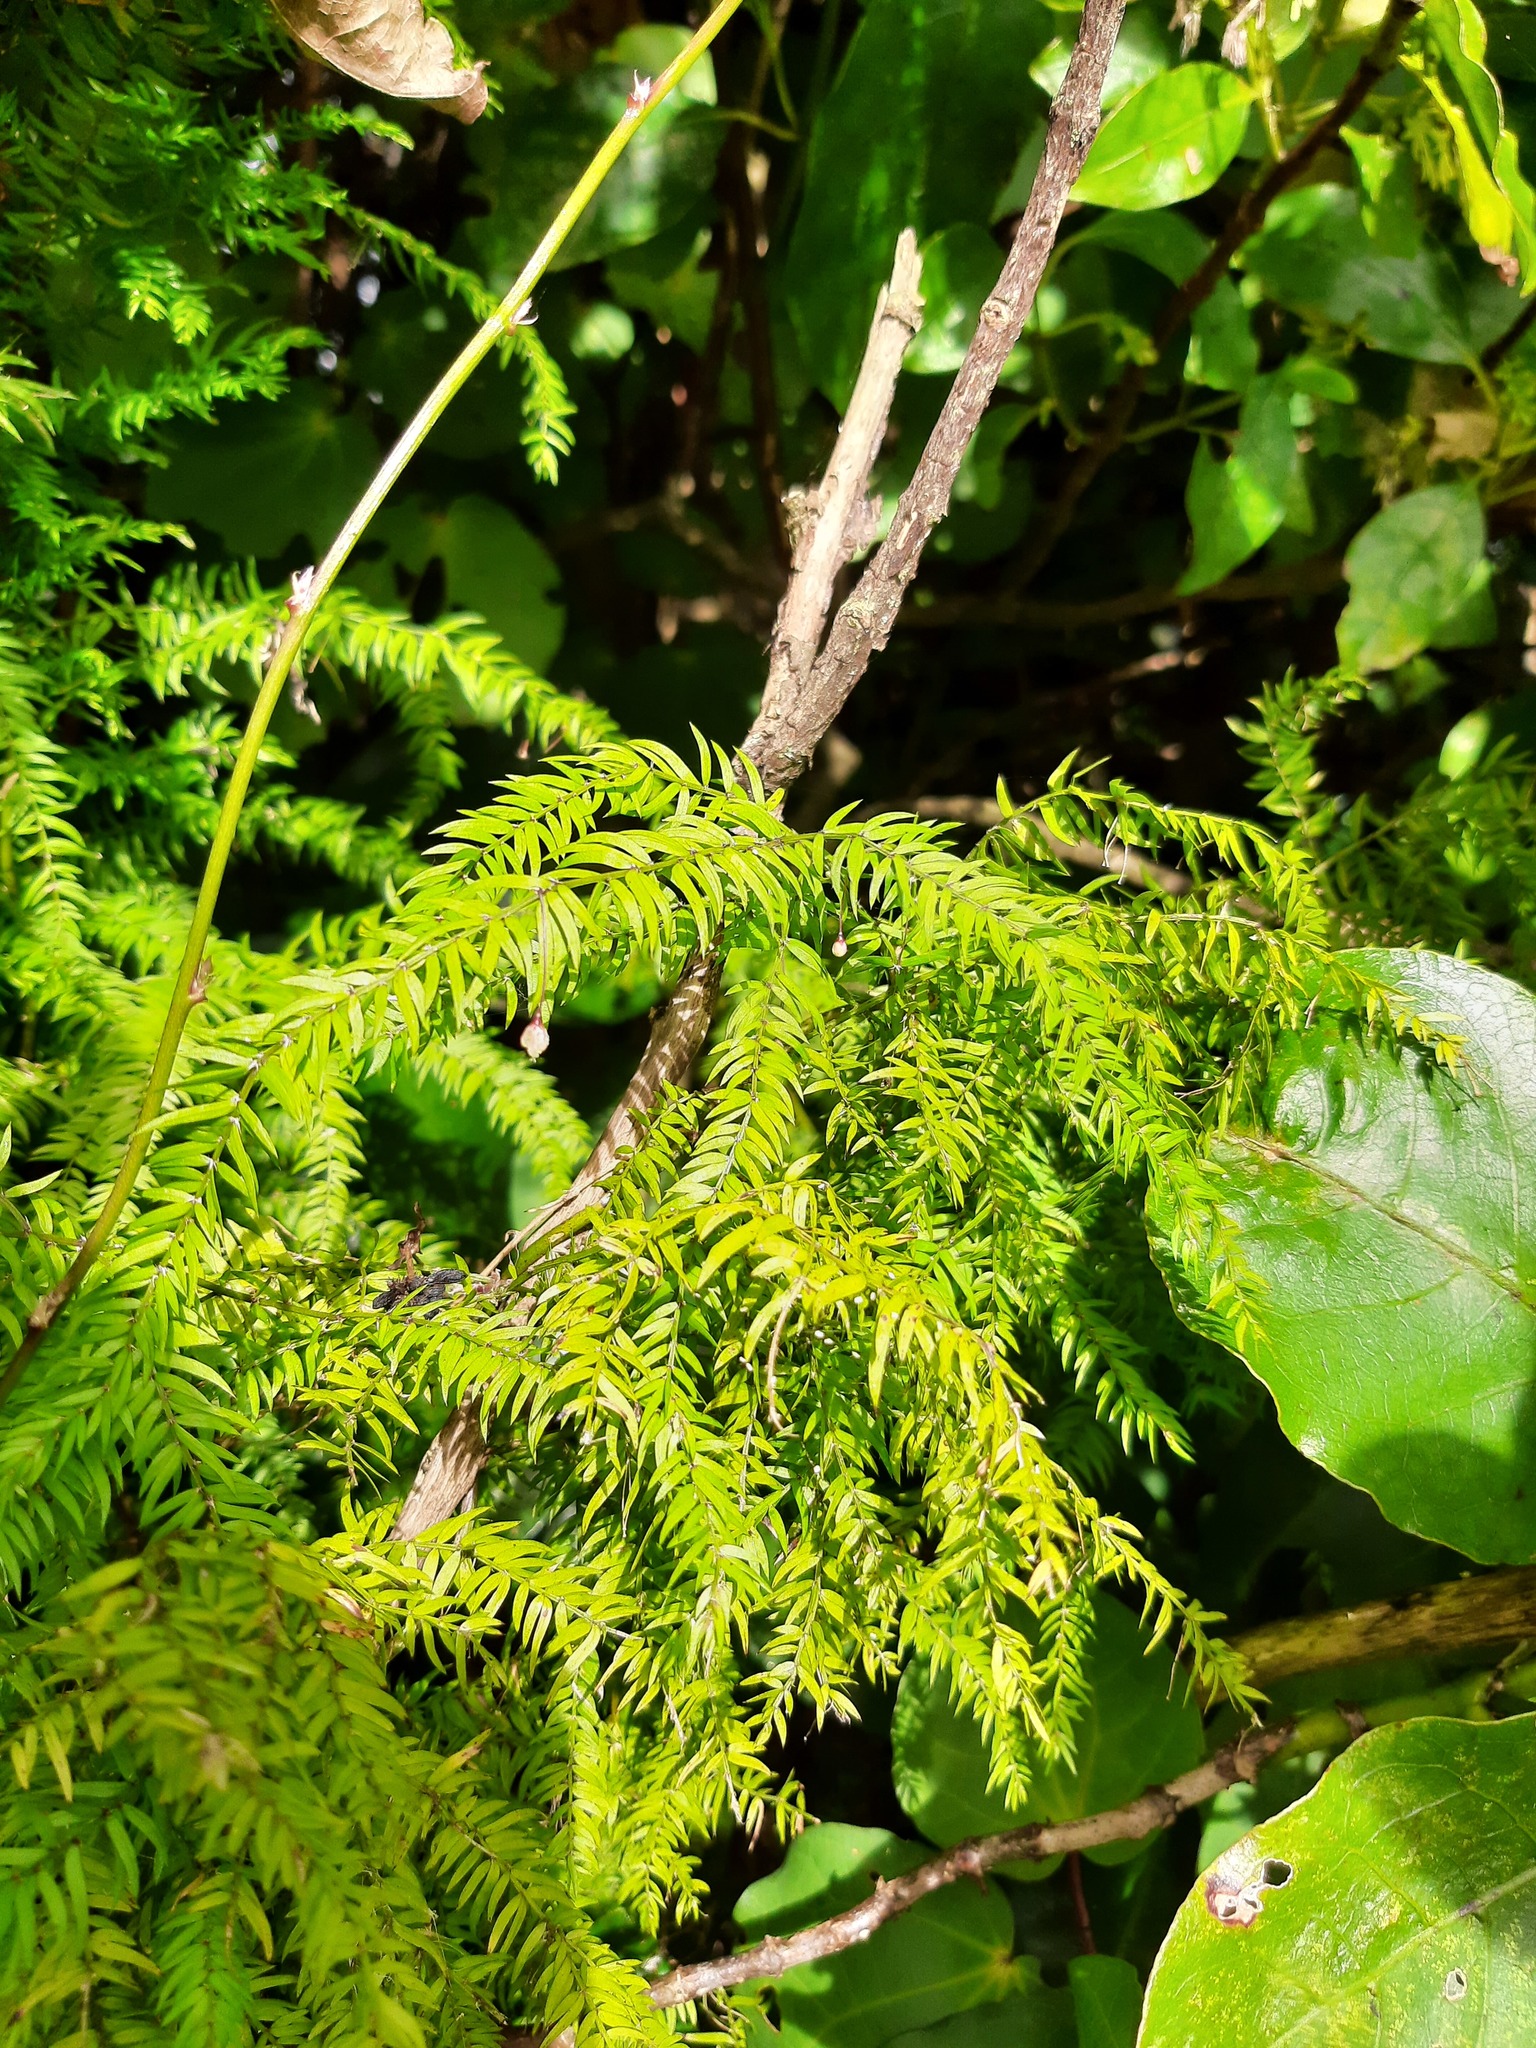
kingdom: Plantae
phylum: Tracheophyta
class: Liliopsida
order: Asparagales
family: Asparagaceae
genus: Asparagus
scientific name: Asparagus scandens
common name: Asparagus-fern
